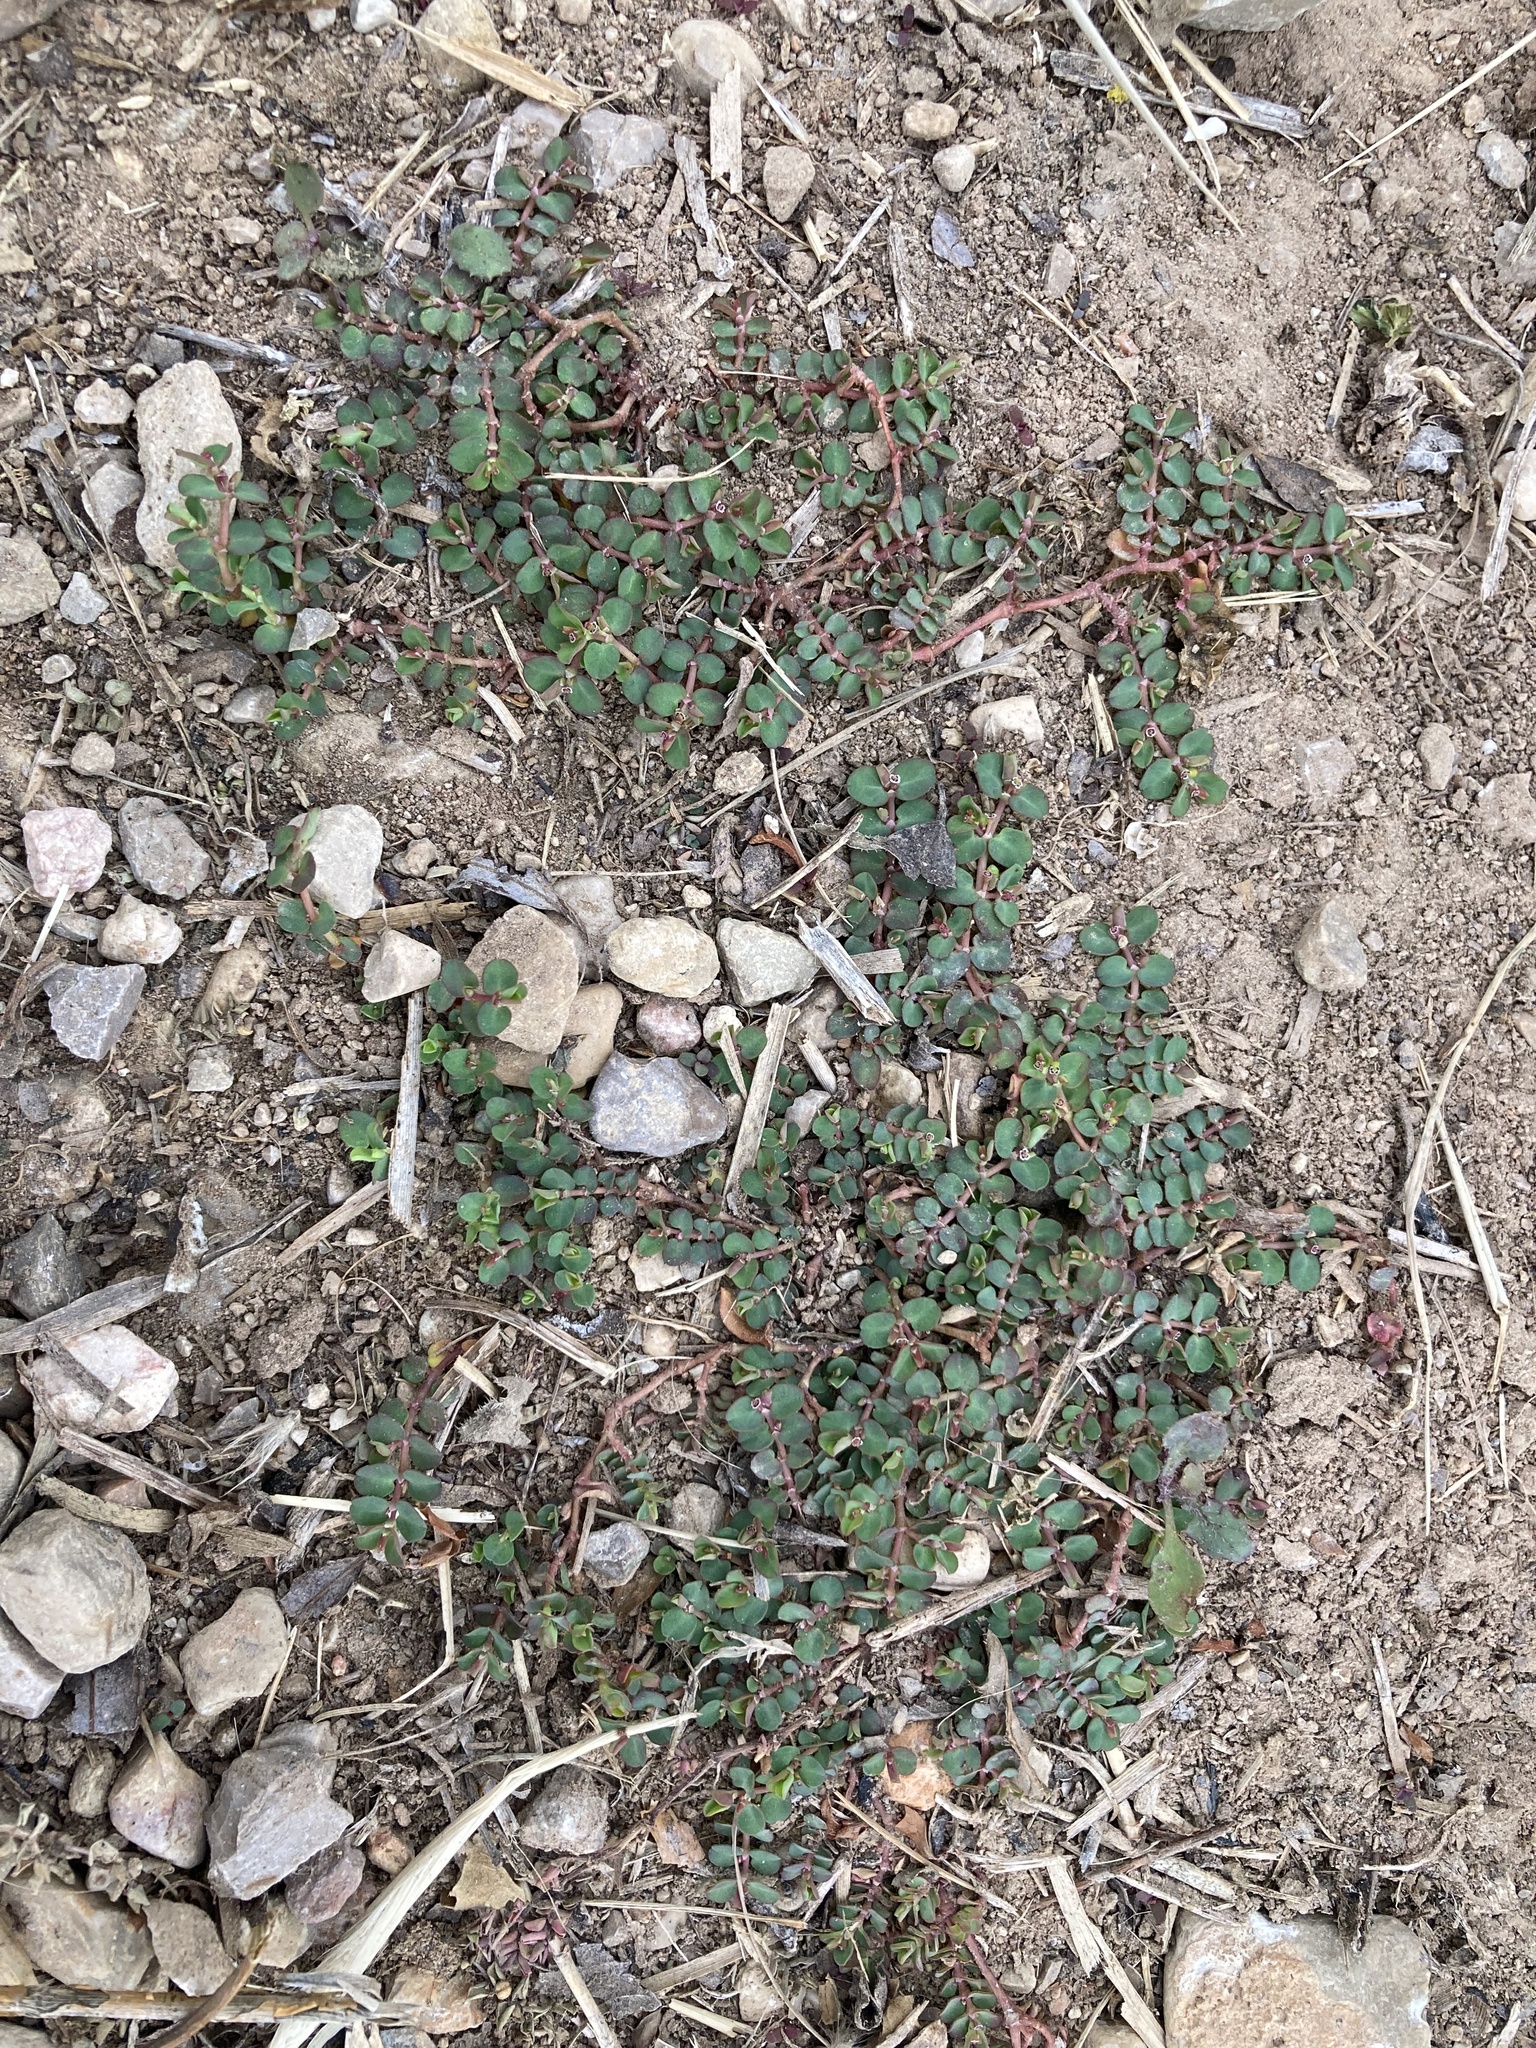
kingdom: Plantae
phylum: Tracheophyta
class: Magnoliopsida
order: Malpighiales
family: Euphorbiaceae
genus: Euphorbia
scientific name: Euphorbia serpens
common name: Matted sandmat
